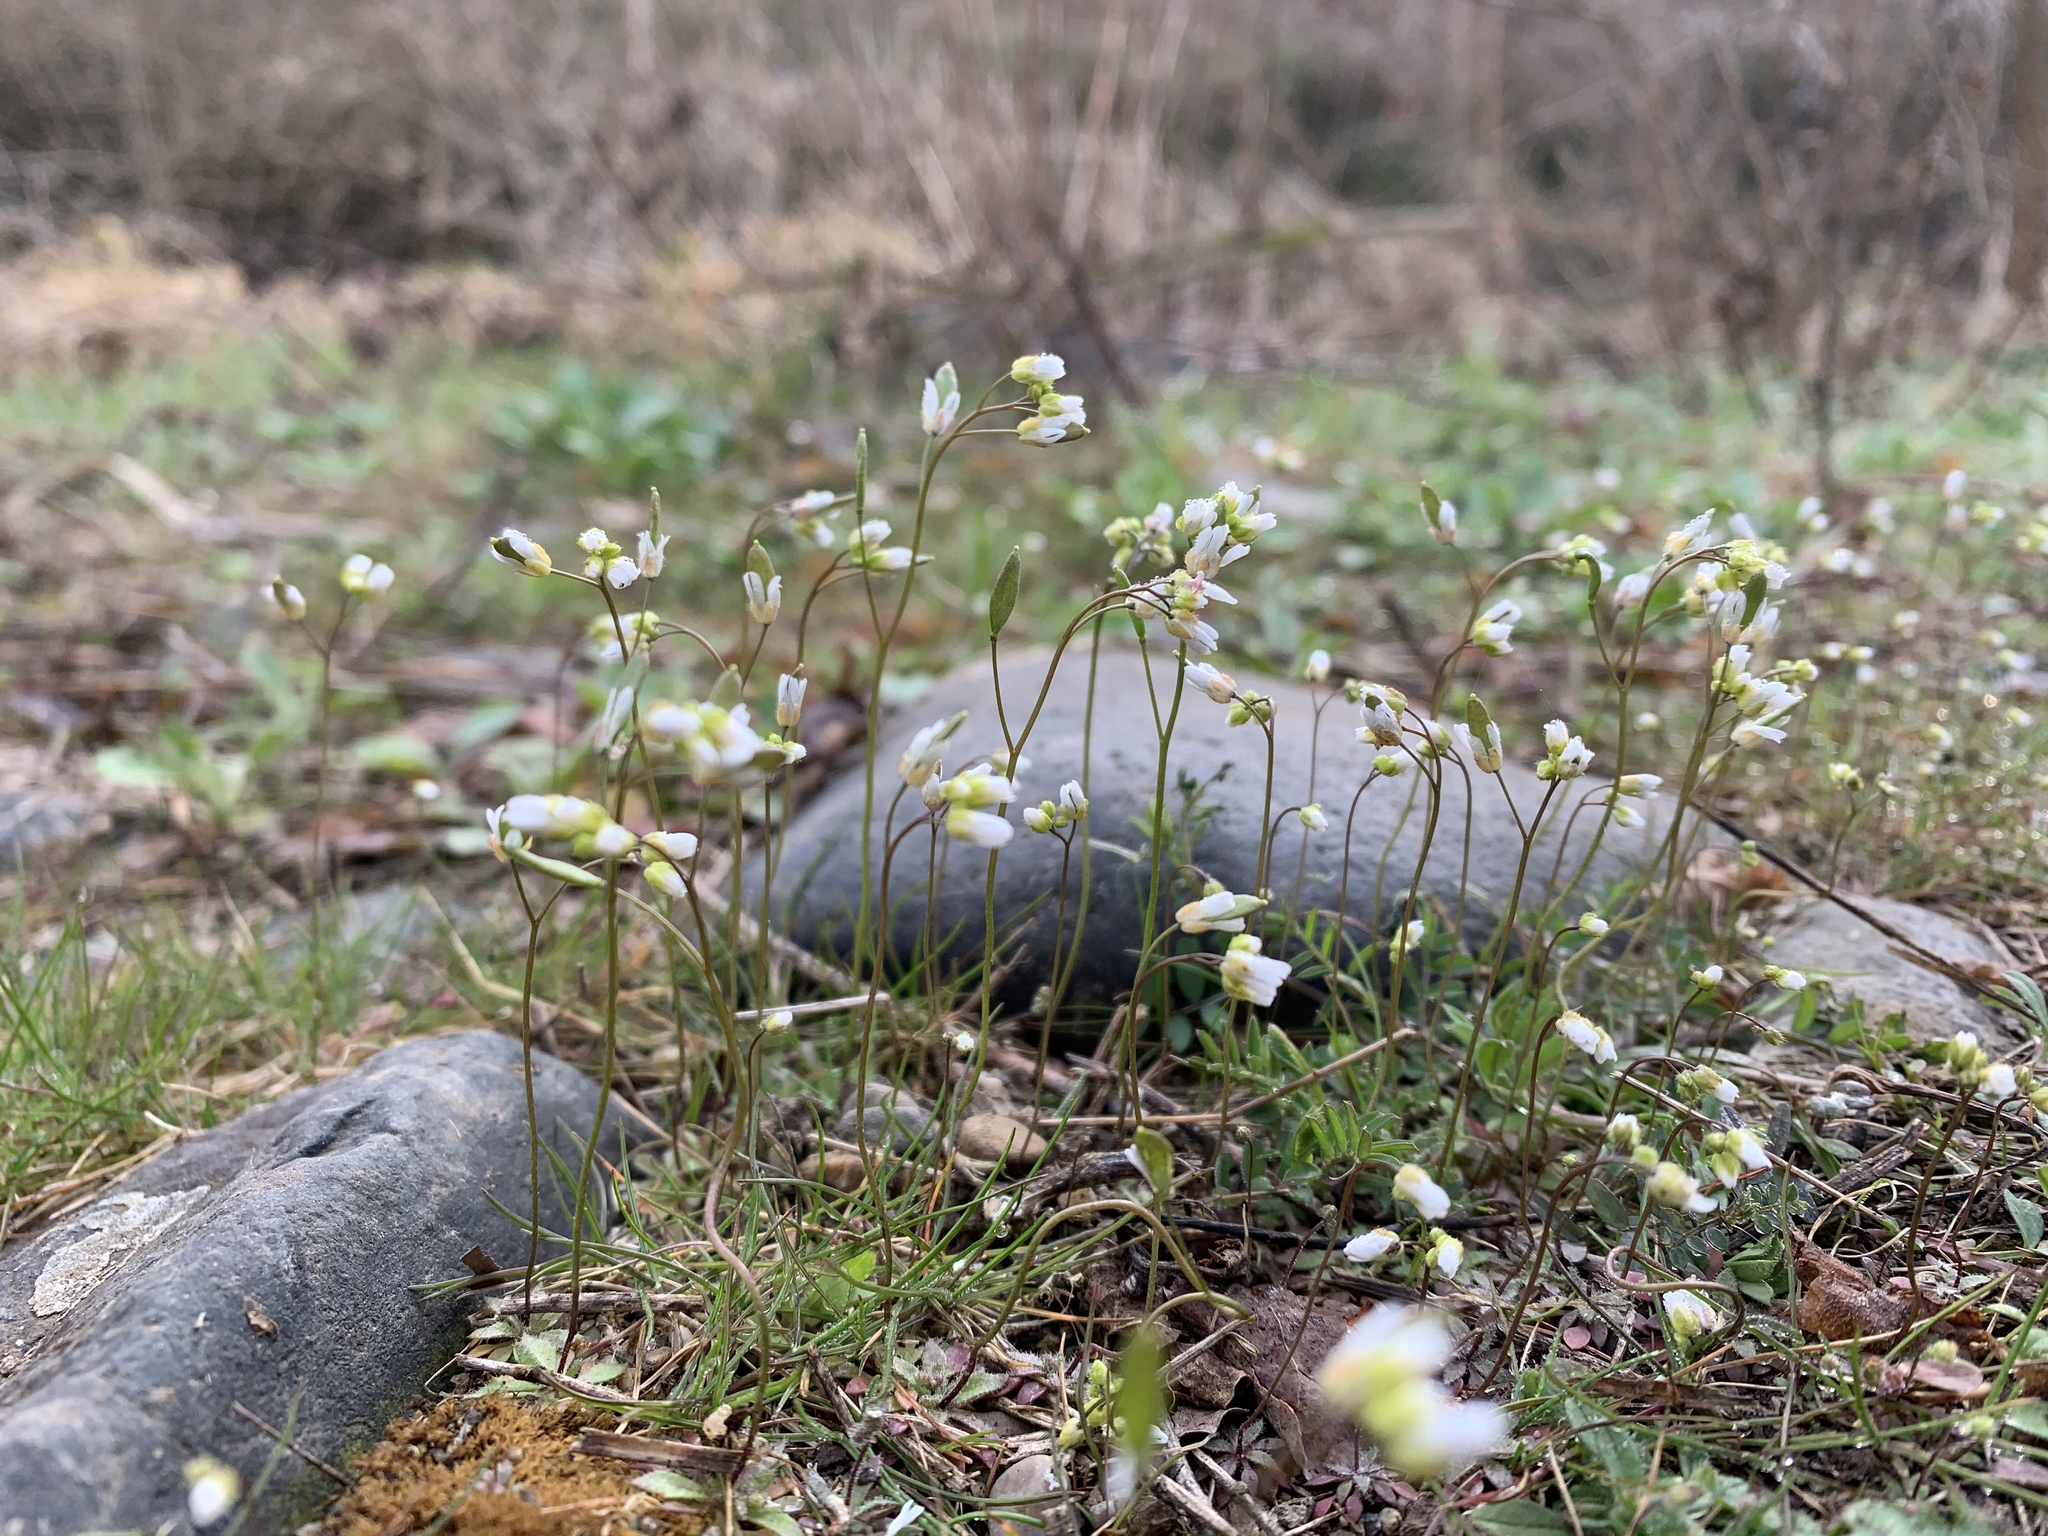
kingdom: Plantae
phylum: Tracheophyta
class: Magnoliopsida
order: Brassicales
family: Brassicaceae
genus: Draba
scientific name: Draba verna
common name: Spring draba
